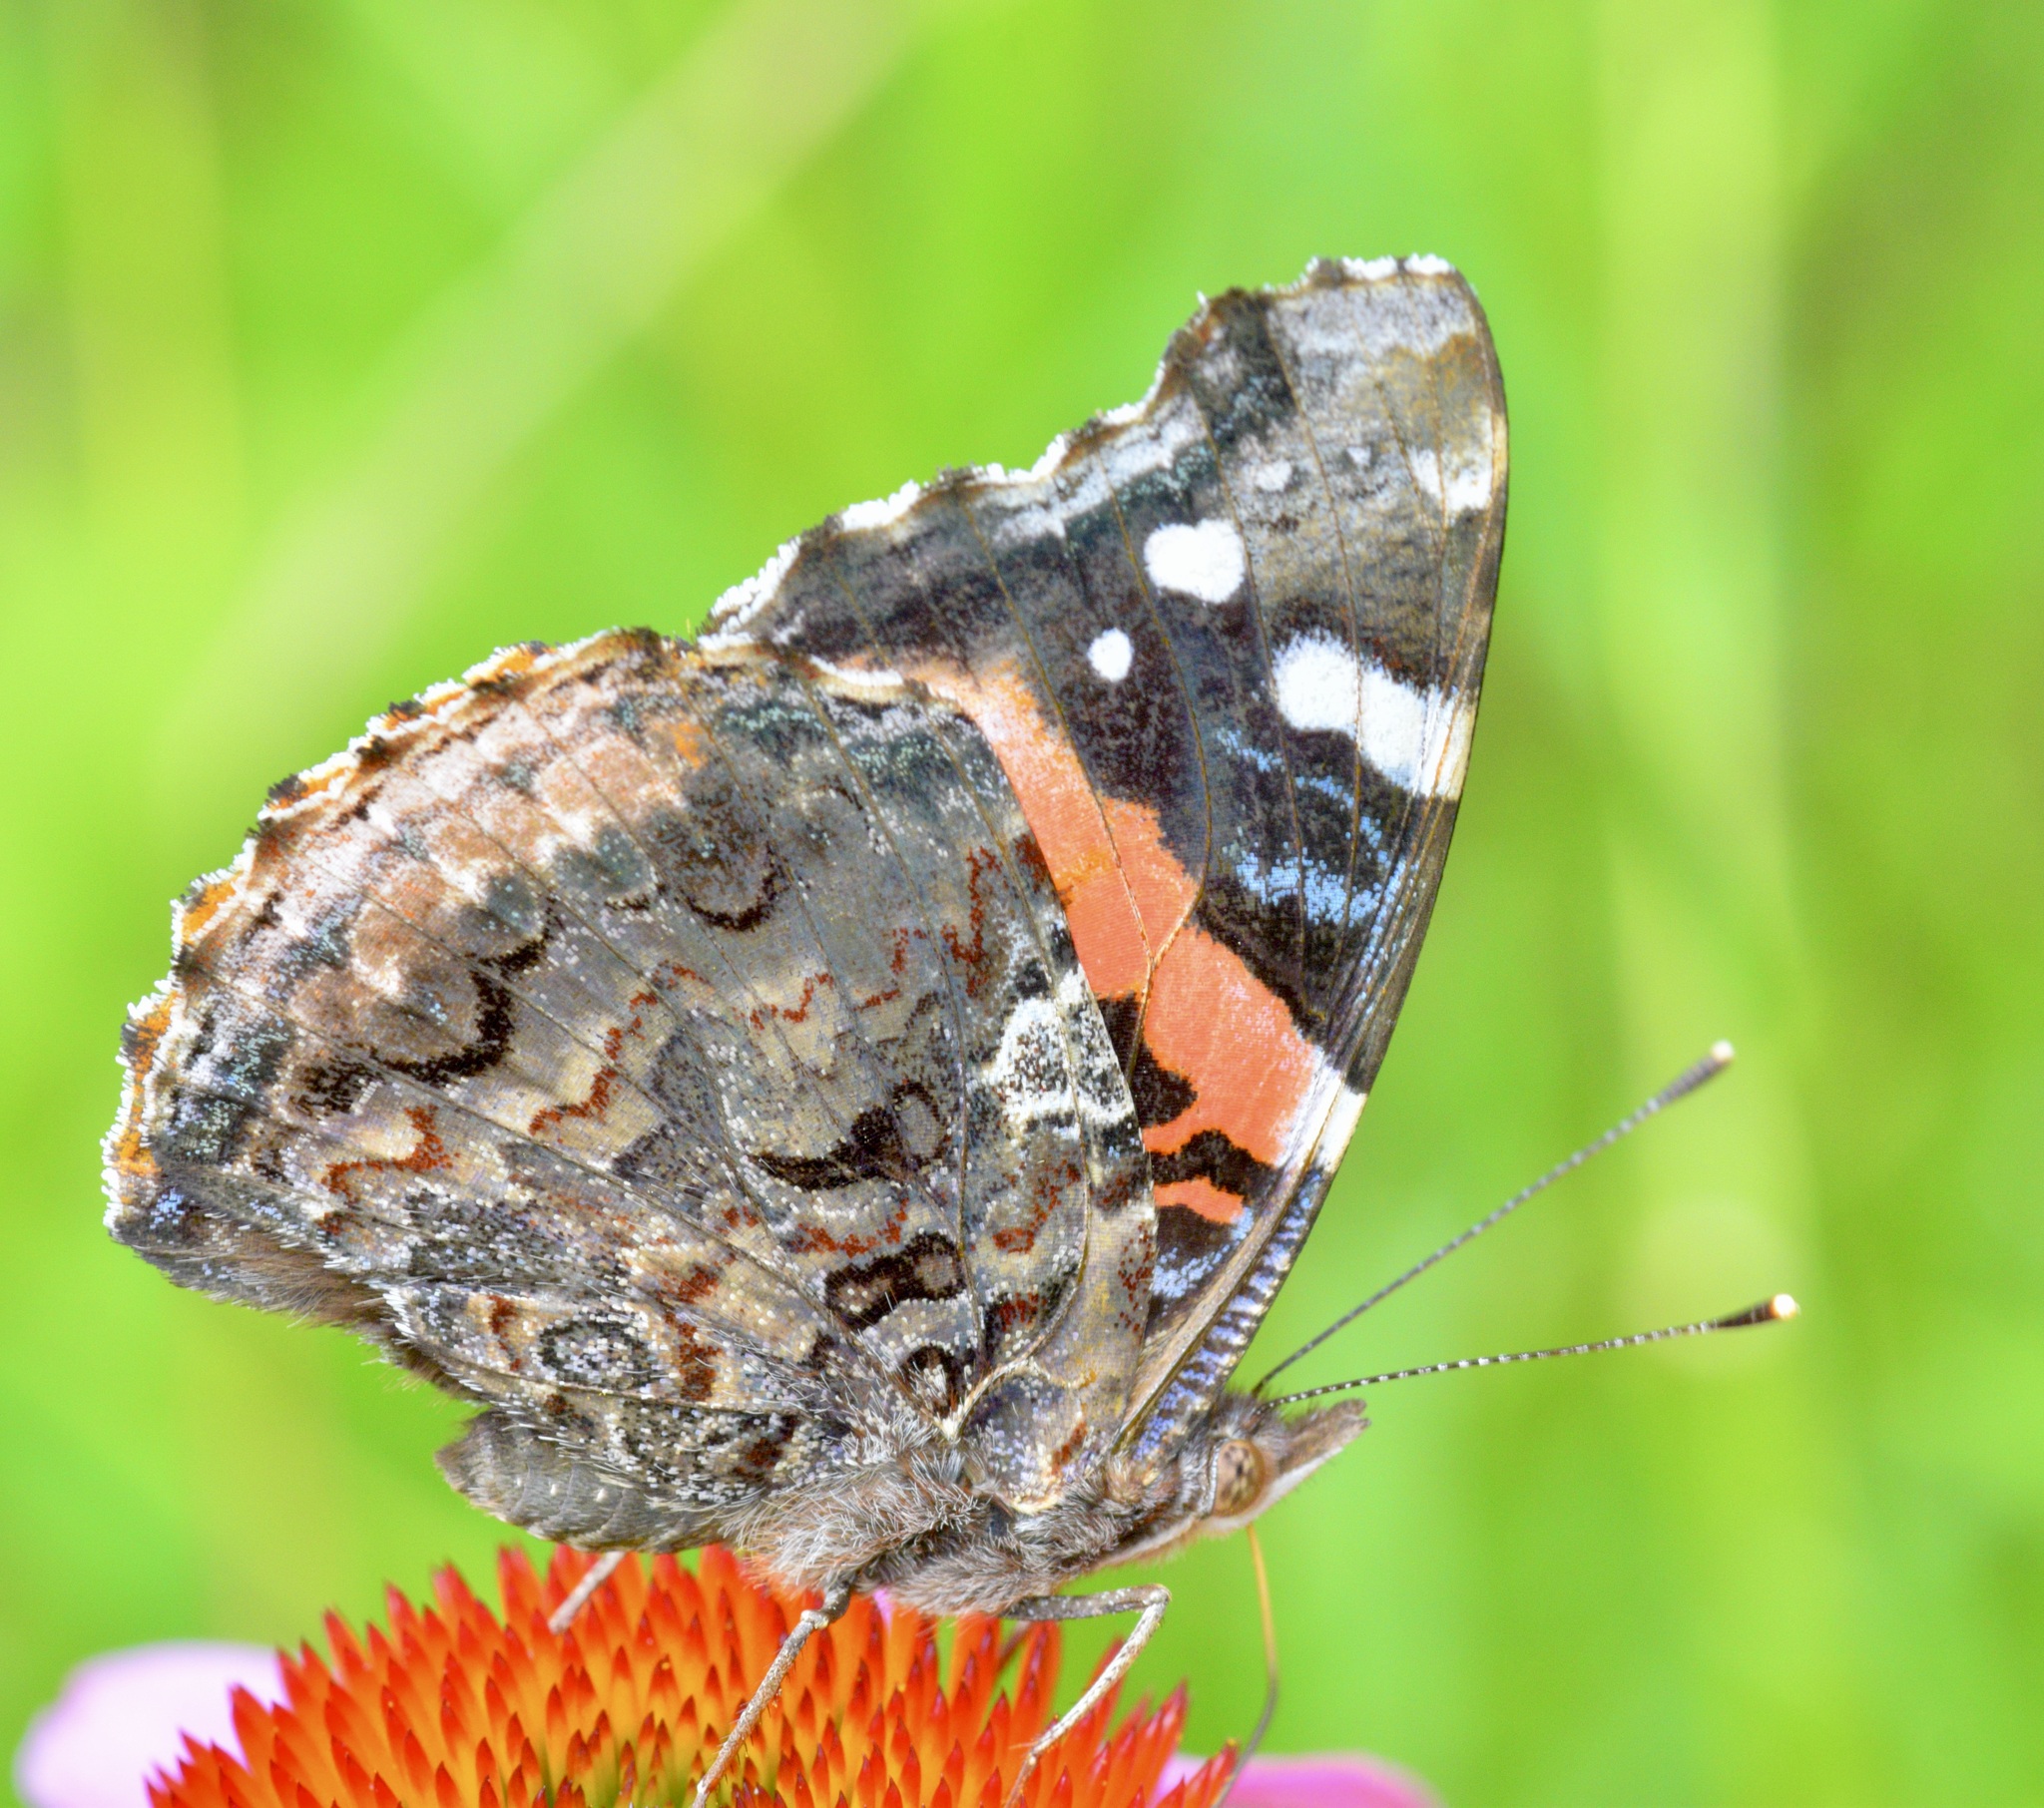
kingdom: Animalia
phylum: Arthropoda
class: Insecta
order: Lepidoptera
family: Nymphalidae
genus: Vanessa
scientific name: Vanessa atalanta
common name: Red admiral
